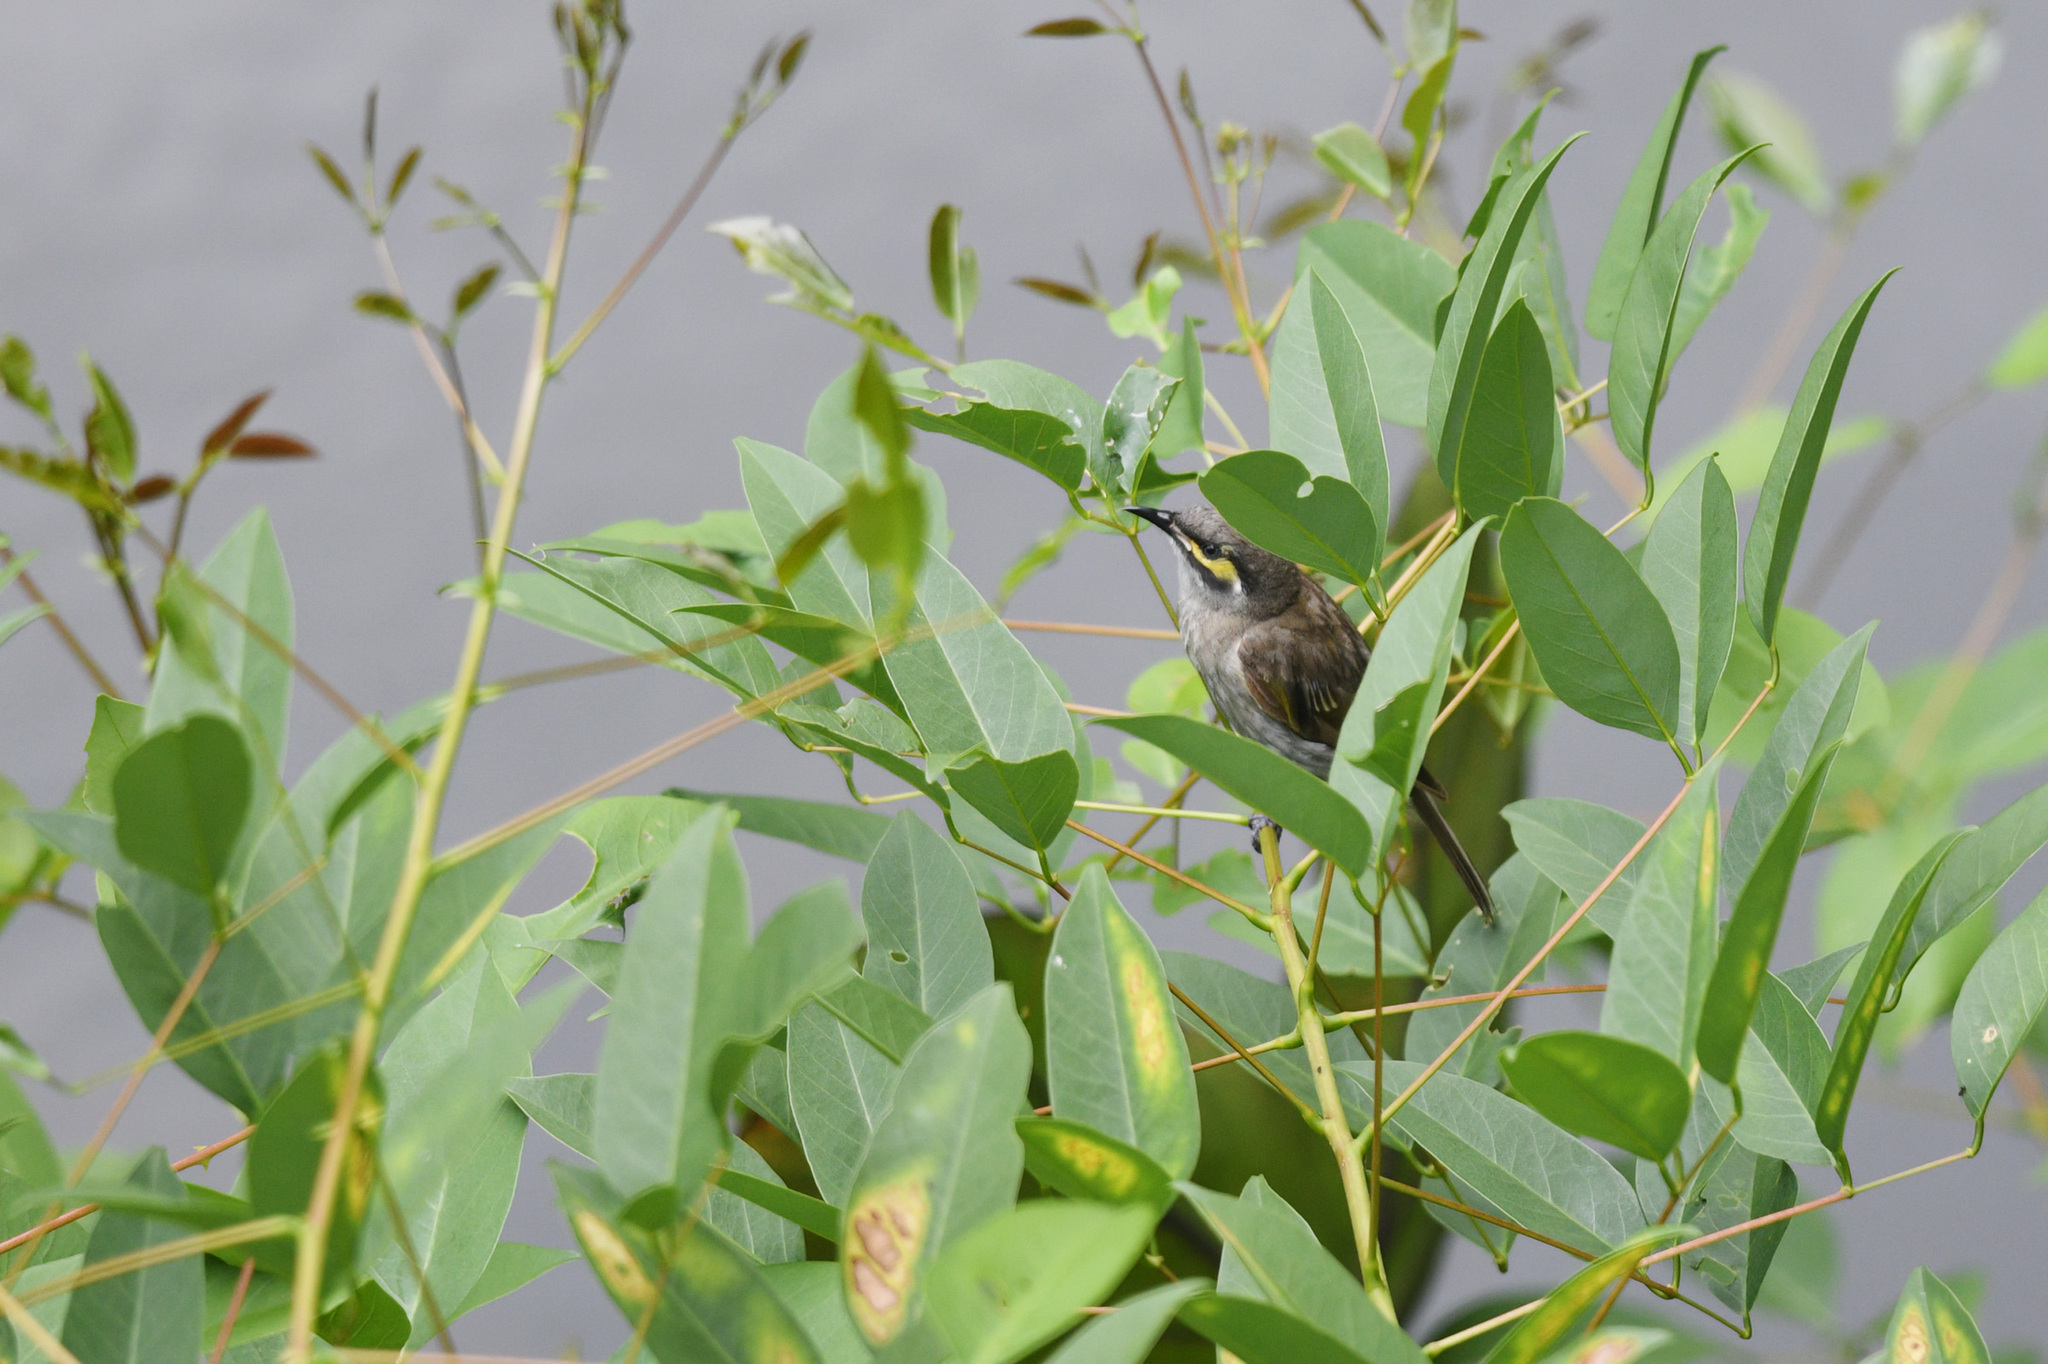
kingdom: Animalia
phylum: Chordata
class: Aves
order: Passeriformes
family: Meliphagidae
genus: Caligavis
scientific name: Caligavis chrysops
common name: Yellow-faced honeyeater
